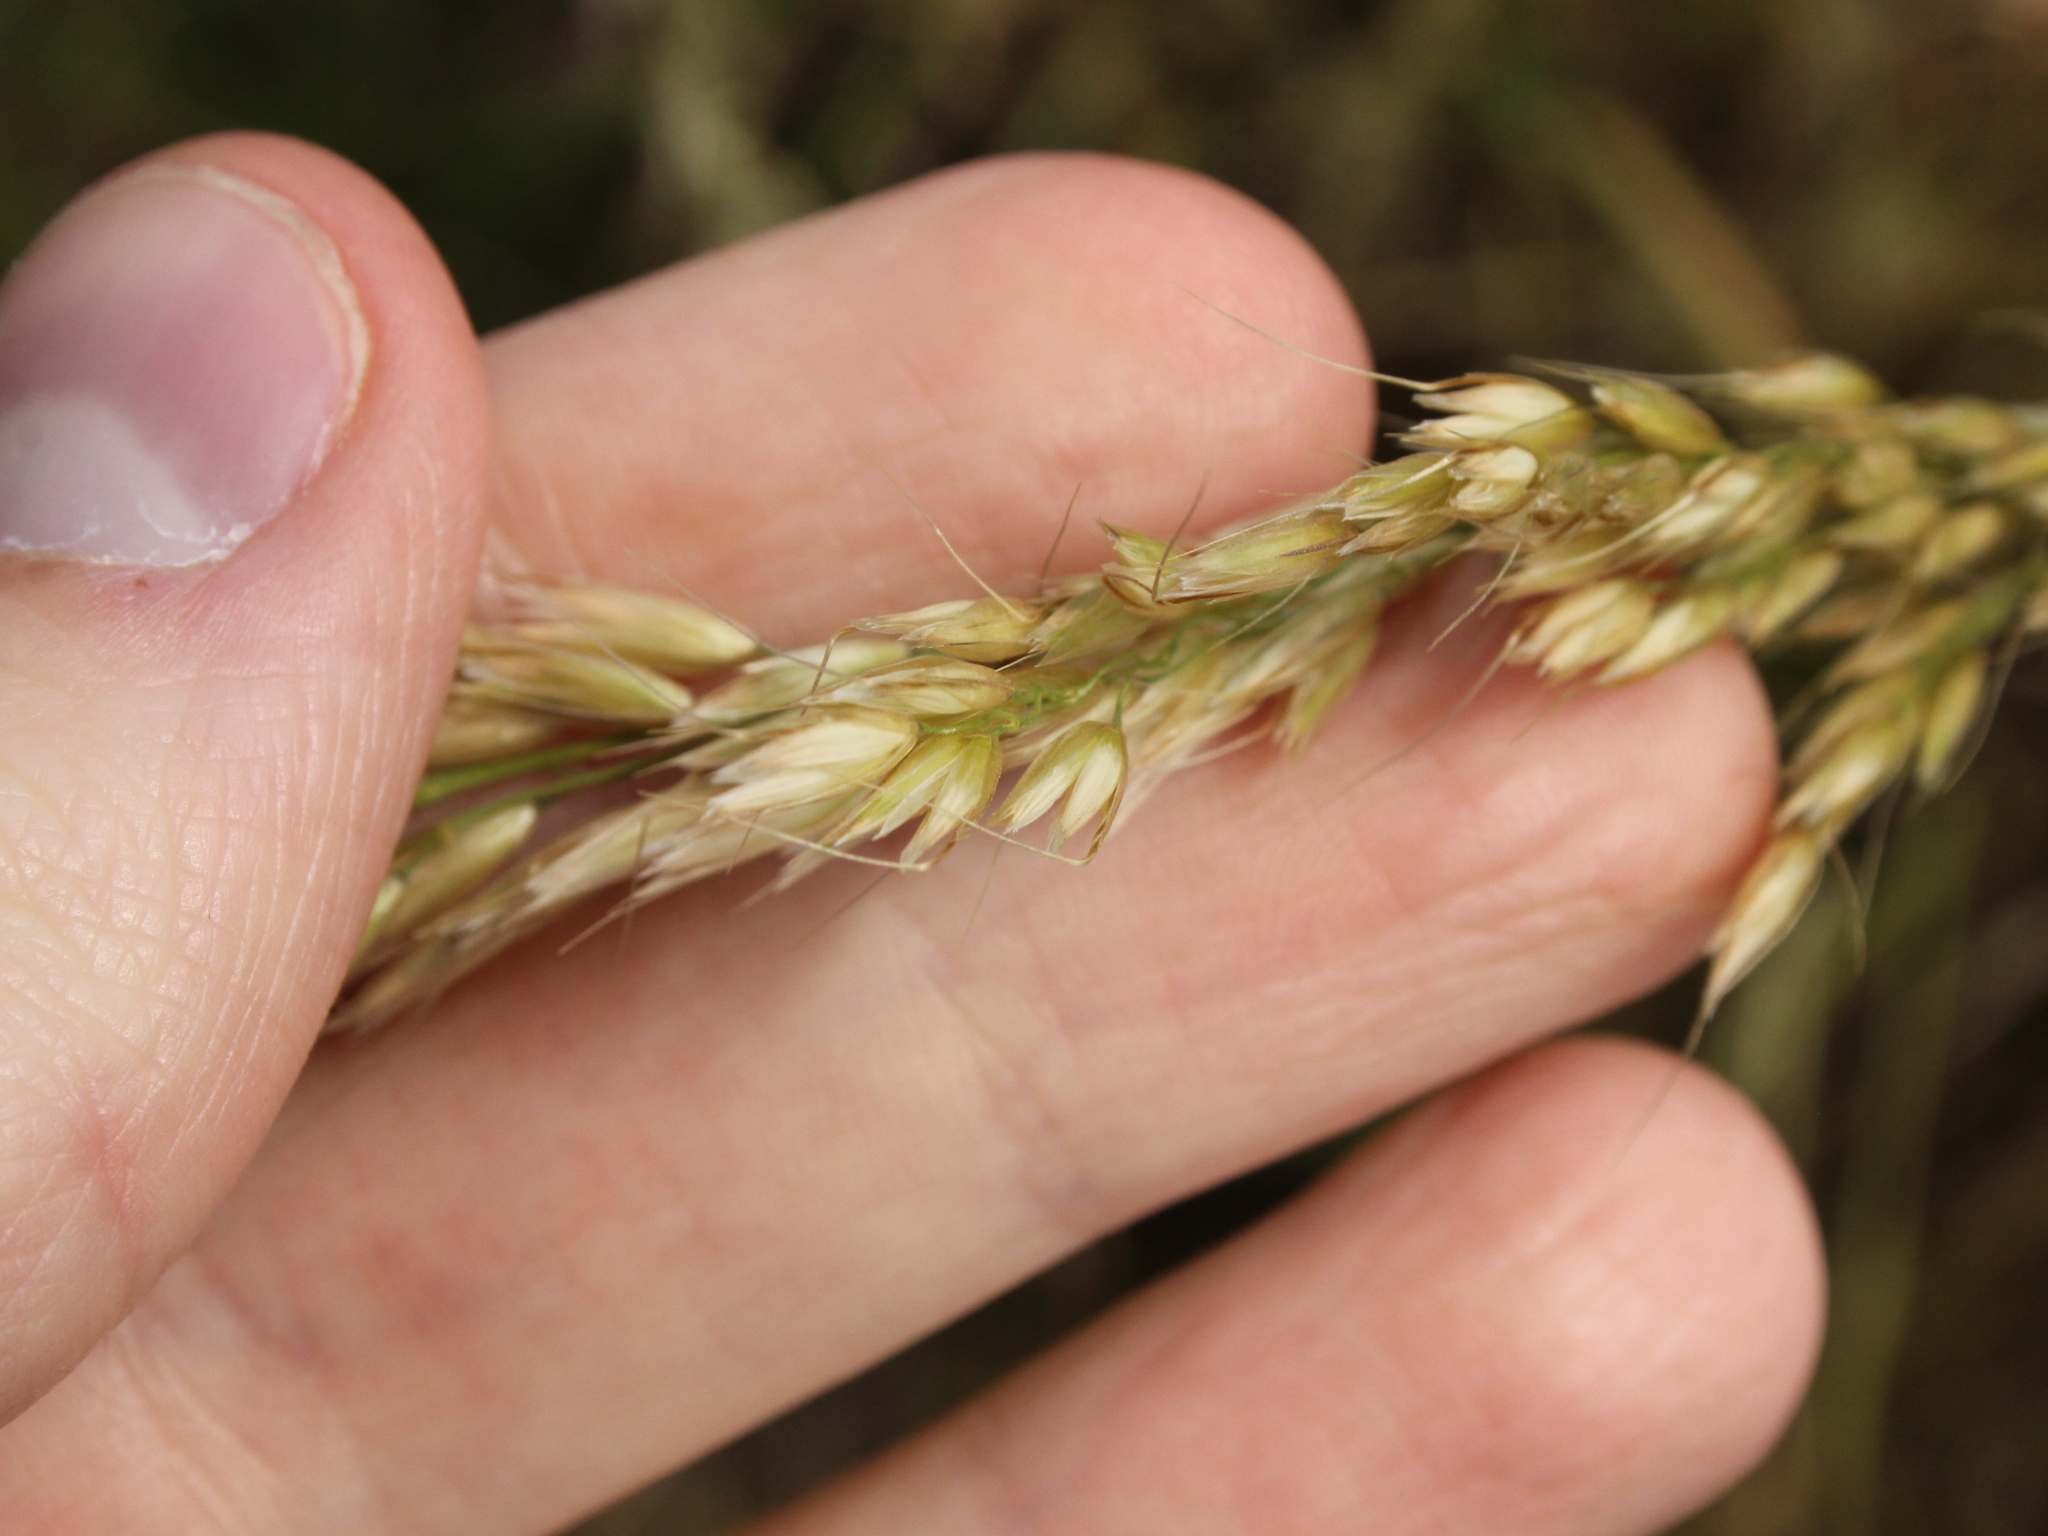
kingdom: Plantae
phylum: Tracheophyta
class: Liliopsida
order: Poales
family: Poaceae
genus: Arrhenatherum
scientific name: Arrhenatherum elatius
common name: Tall oatgrass
